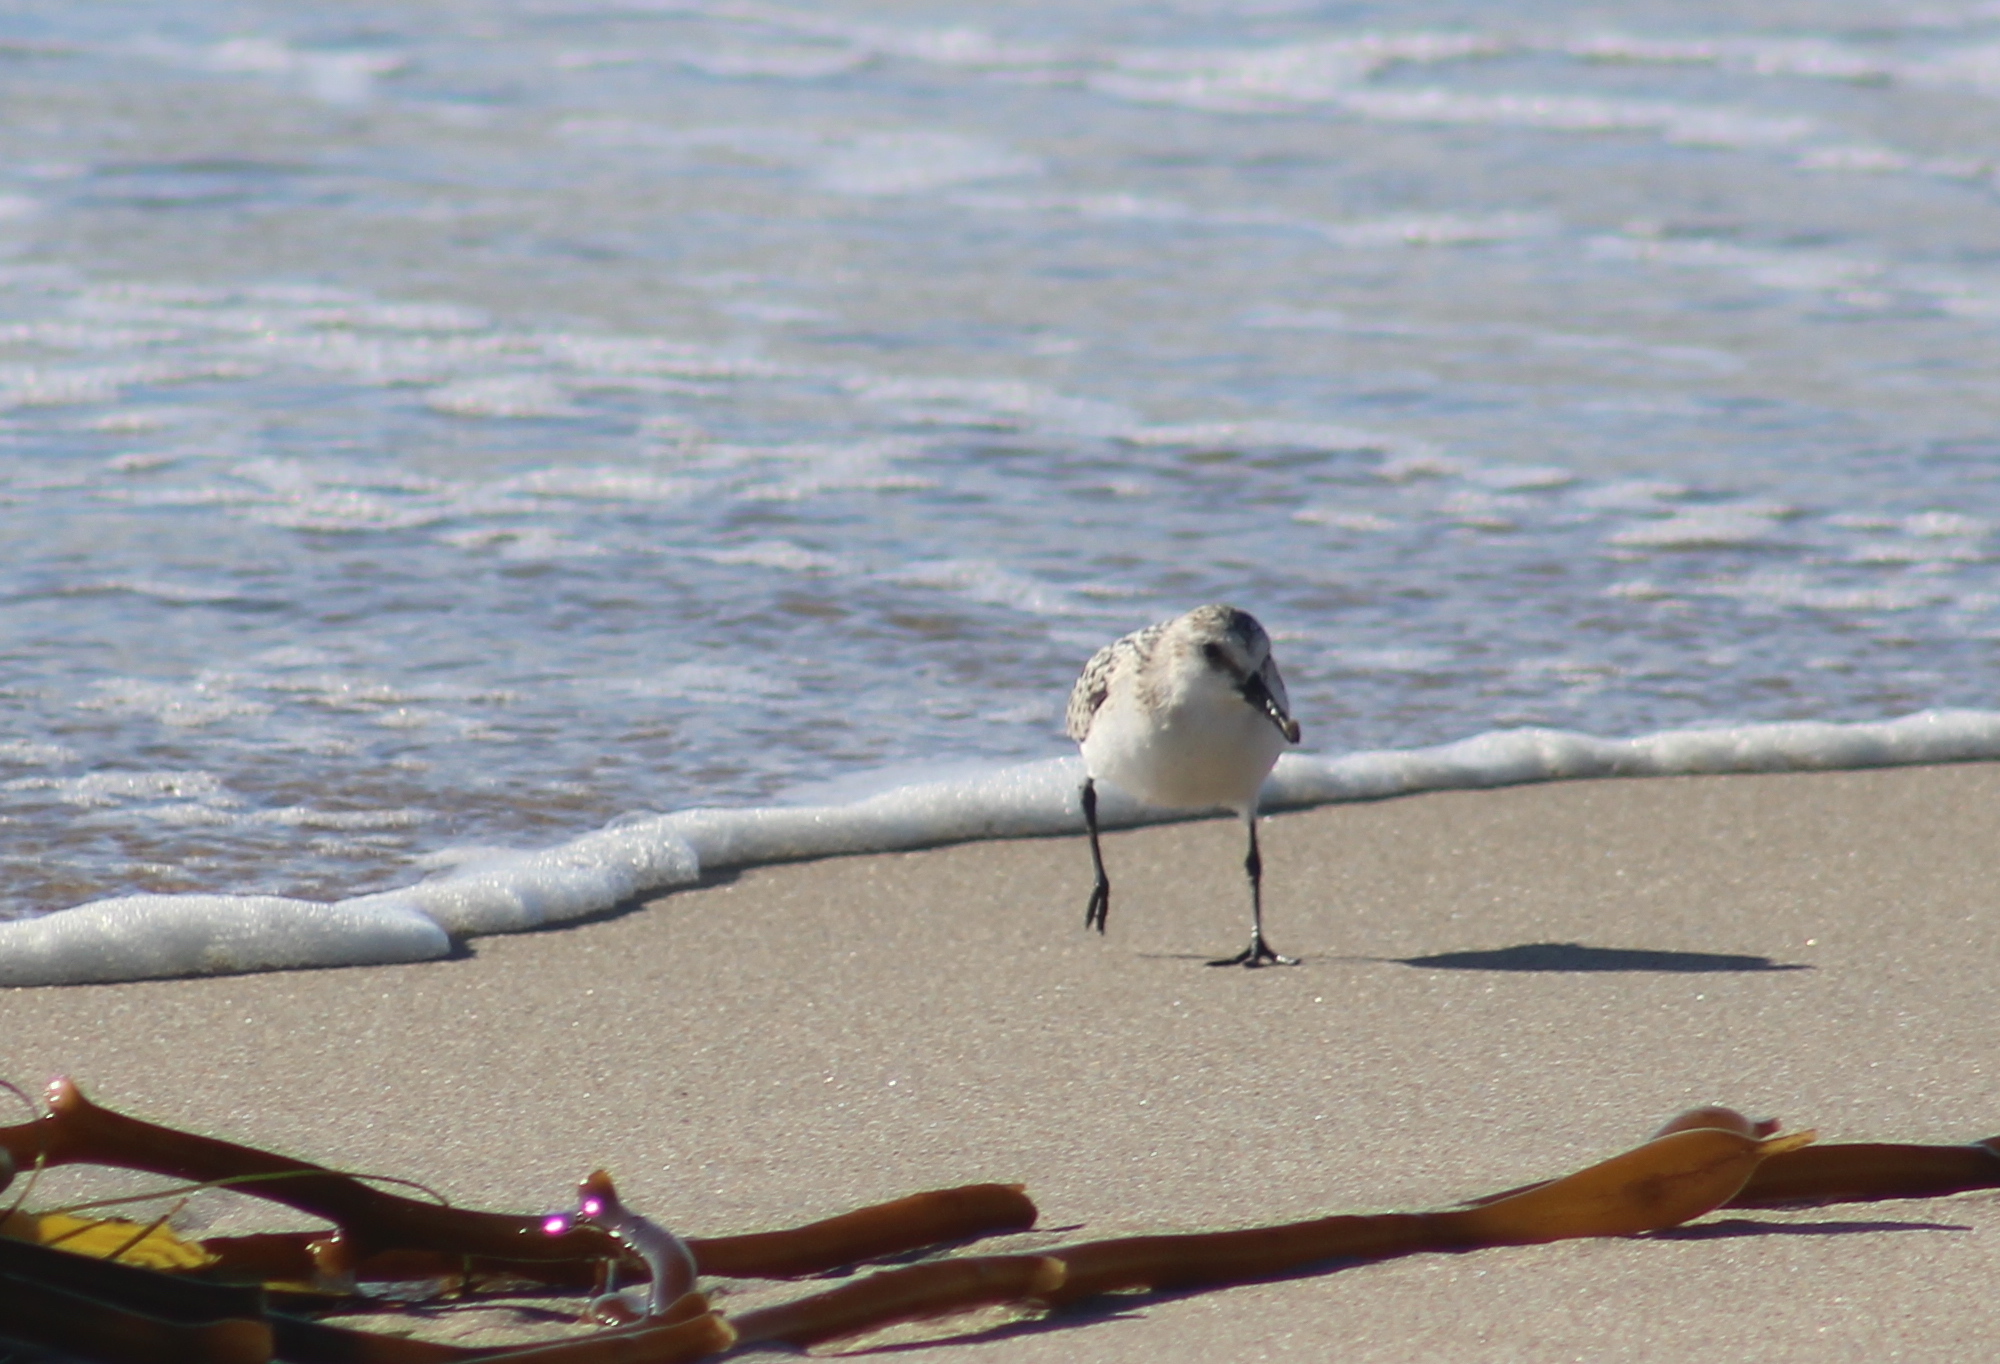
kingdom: Animalia
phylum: Chordata
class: Aves
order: Charadriiformes
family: Scolopacidae
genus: Calidris
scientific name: Calidris alba
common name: Sanderling
